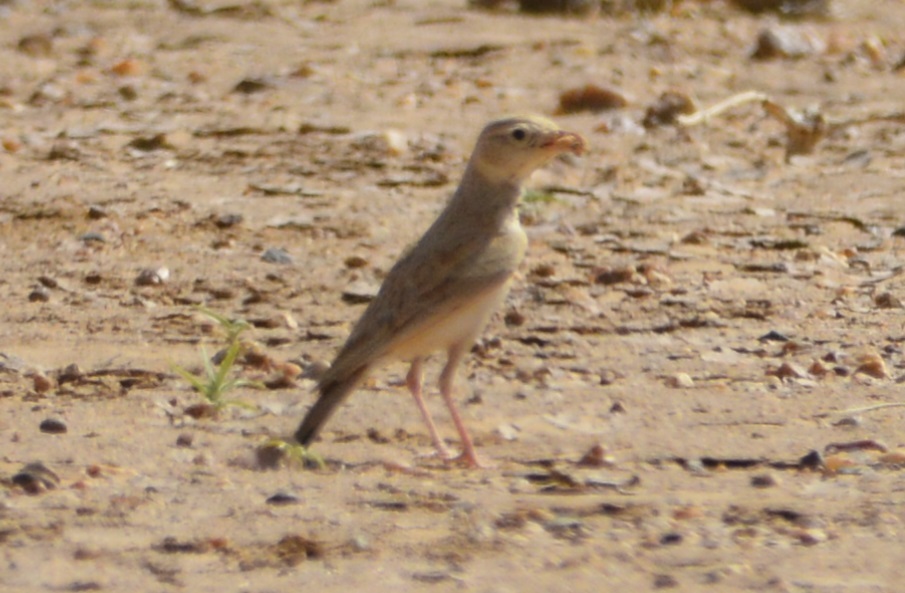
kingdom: Animalia
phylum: Chordata
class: Aves
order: Passeriformes
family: Alaudidae
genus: Eremalauda
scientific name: Eremalauda dunni
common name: Dunn's lark
